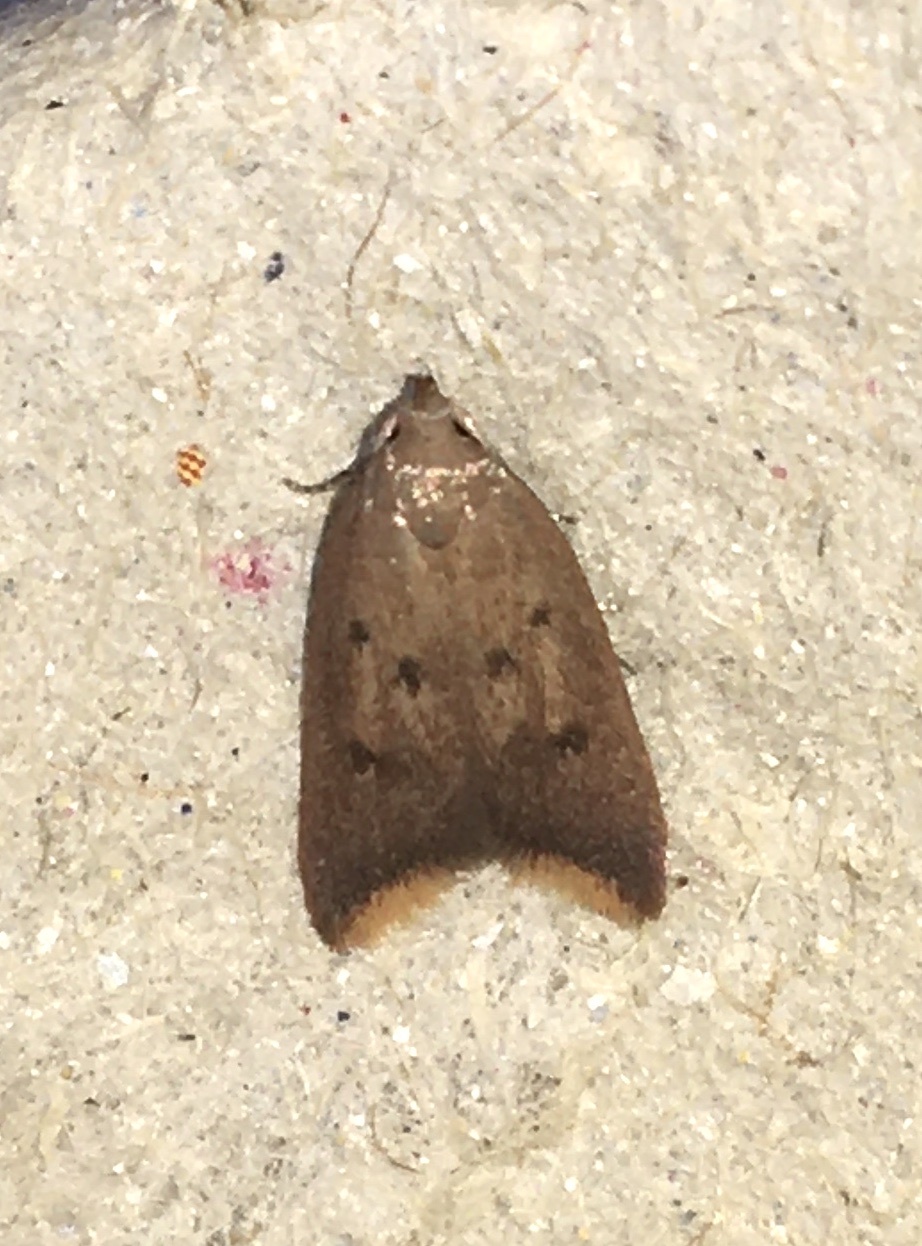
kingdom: Animalia
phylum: Arthropoda
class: Insecta
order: Lepidoptera
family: Oecophoridae
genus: Tachystola
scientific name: Tachystola acroxantha
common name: Ruddy streak
